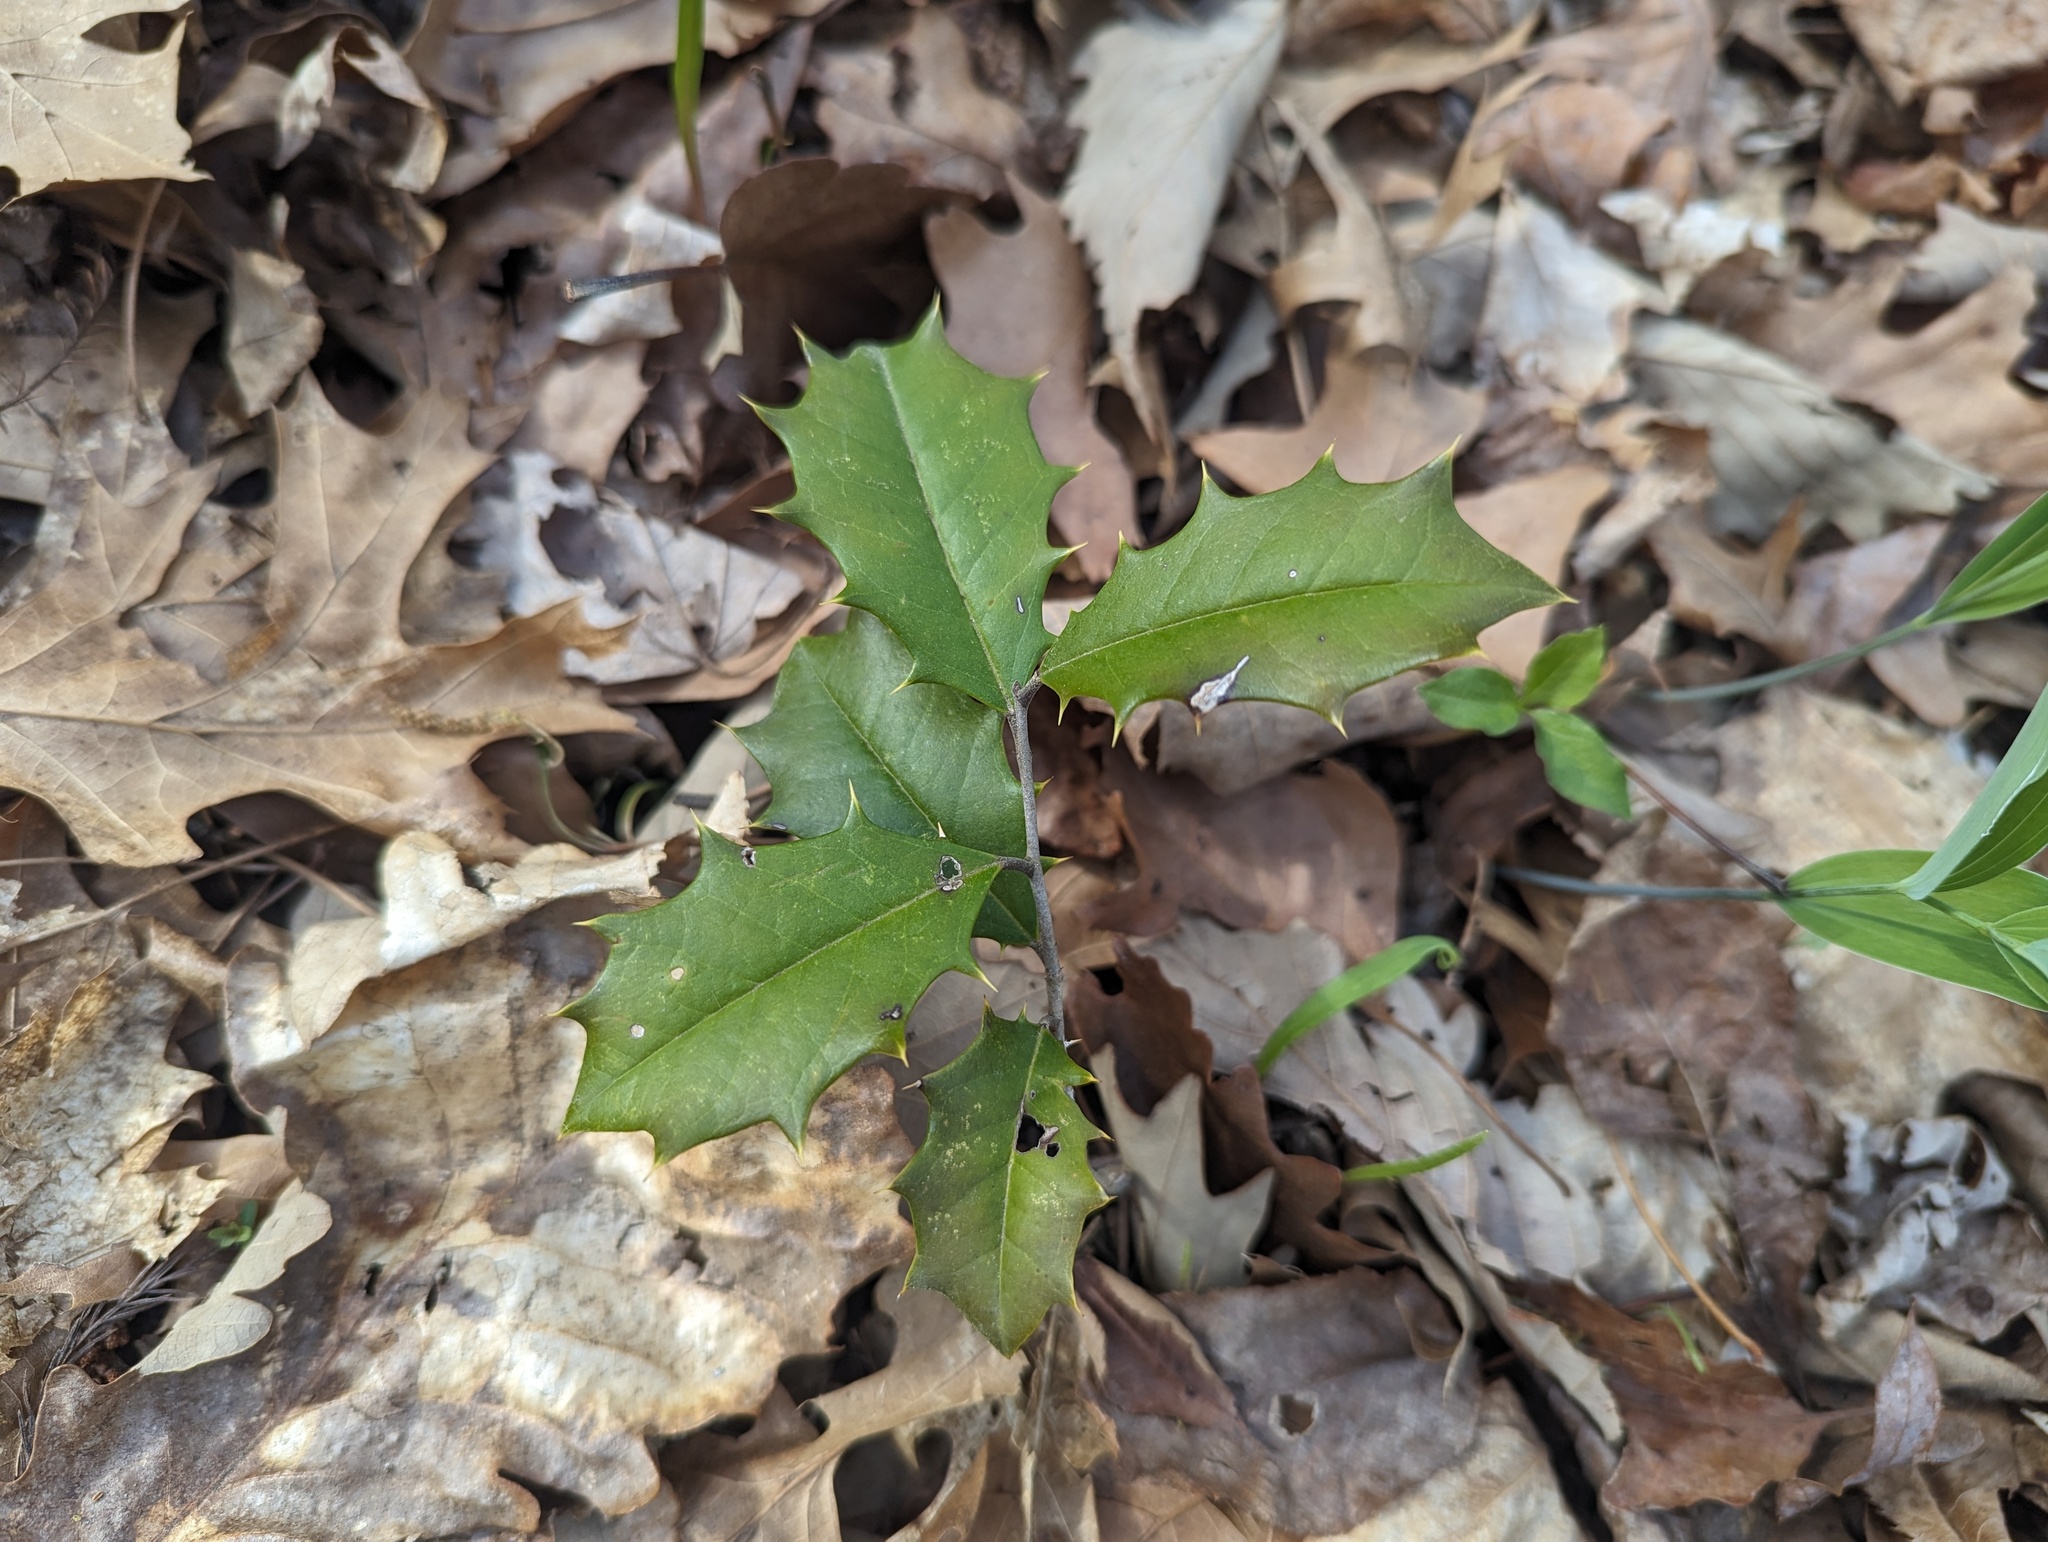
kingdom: Plantae
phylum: Tracheophyta
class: Magnoliopsida
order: Aquifoliales
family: Aquifoliaceae
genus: Ilex
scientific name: Ilex opaca
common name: American holly
